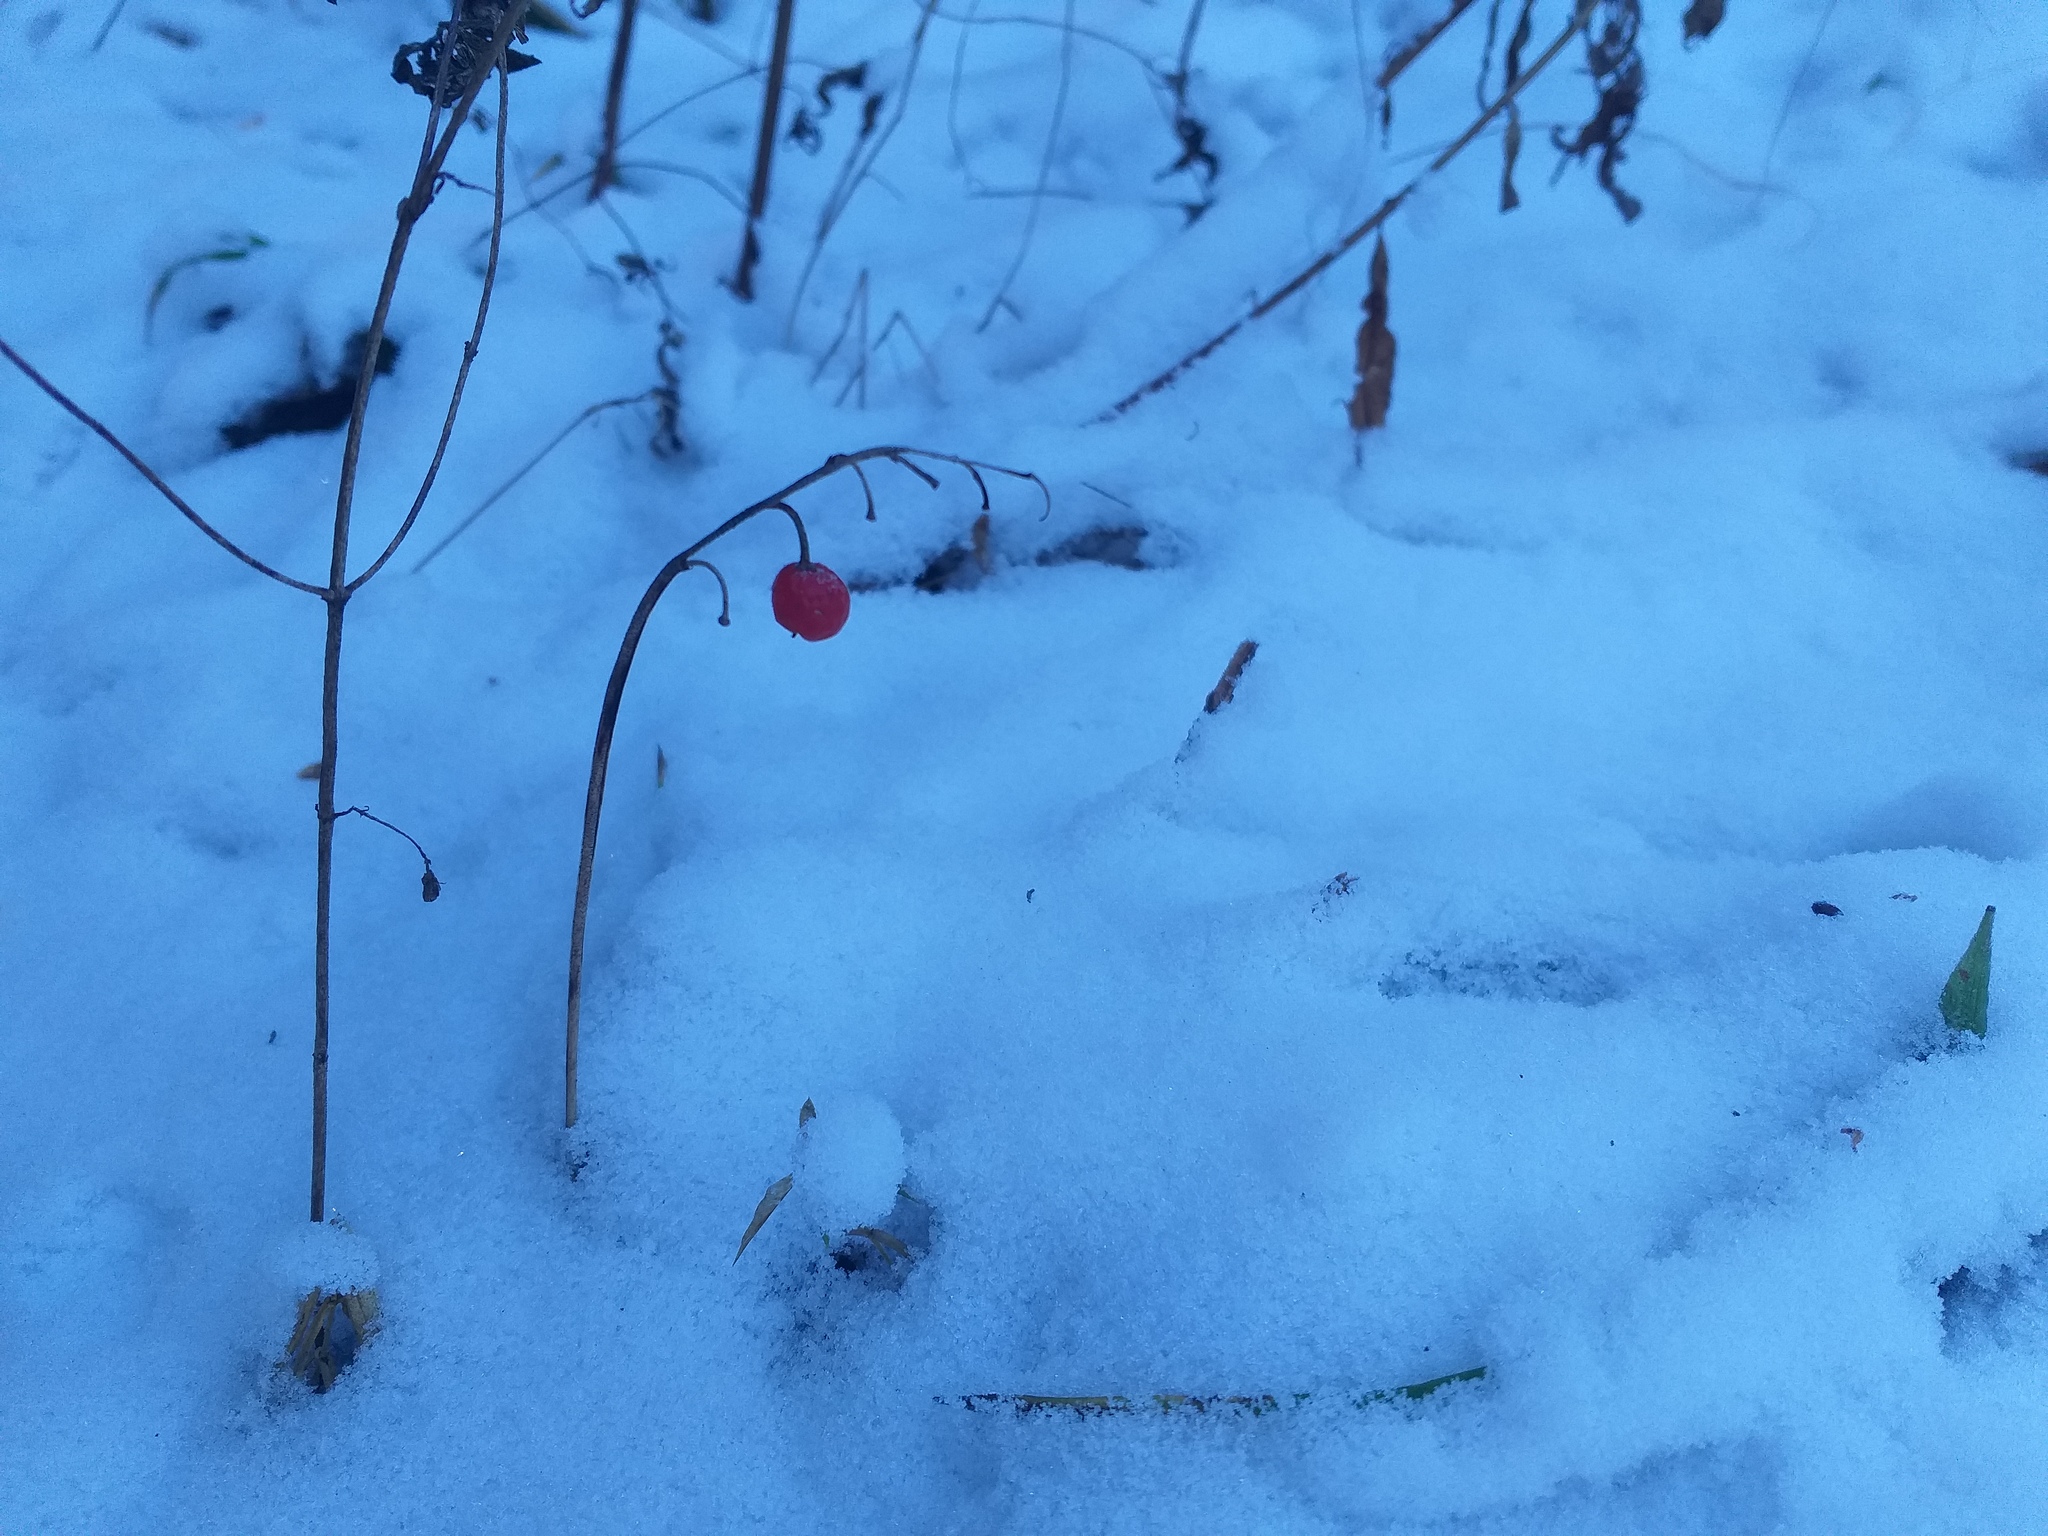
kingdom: Plantae
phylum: Tracheophyta
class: Liliopsida
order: Asparagales
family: Asparagaceae
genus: Convallaria
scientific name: Convallaria majalis
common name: Lily-of-the-valley
